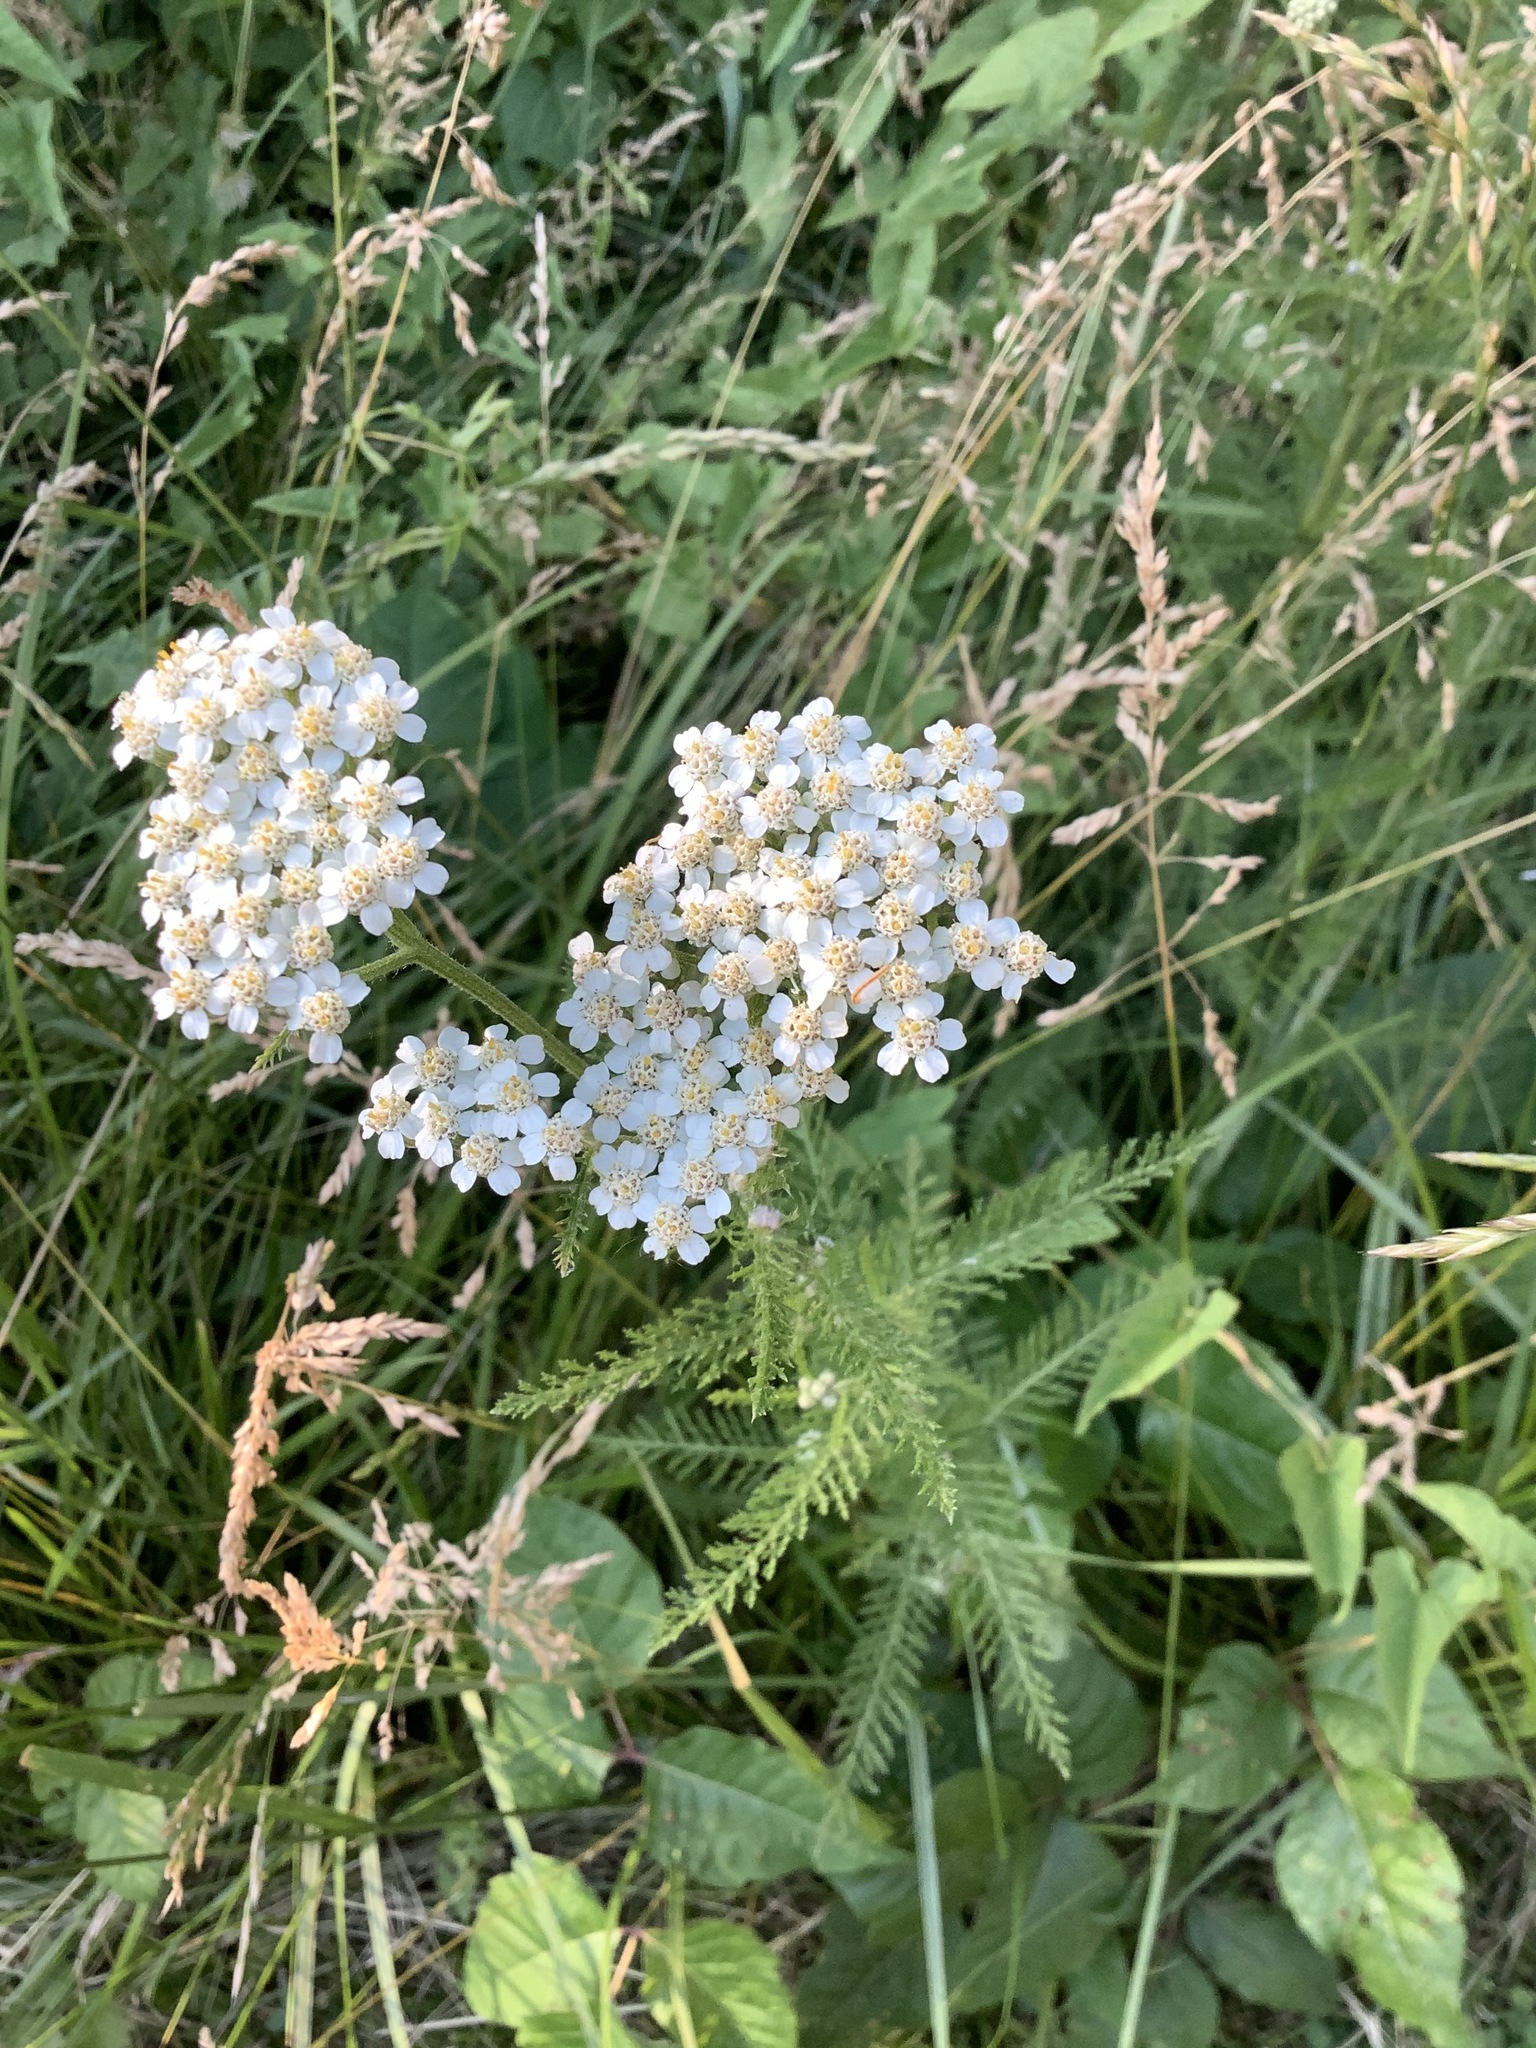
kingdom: Plantae
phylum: Tracheophyta
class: Magnoliopsida
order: Asterales
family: Asteraceae
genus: Achillea
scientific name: Achillea millefolium
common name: Yarrow
